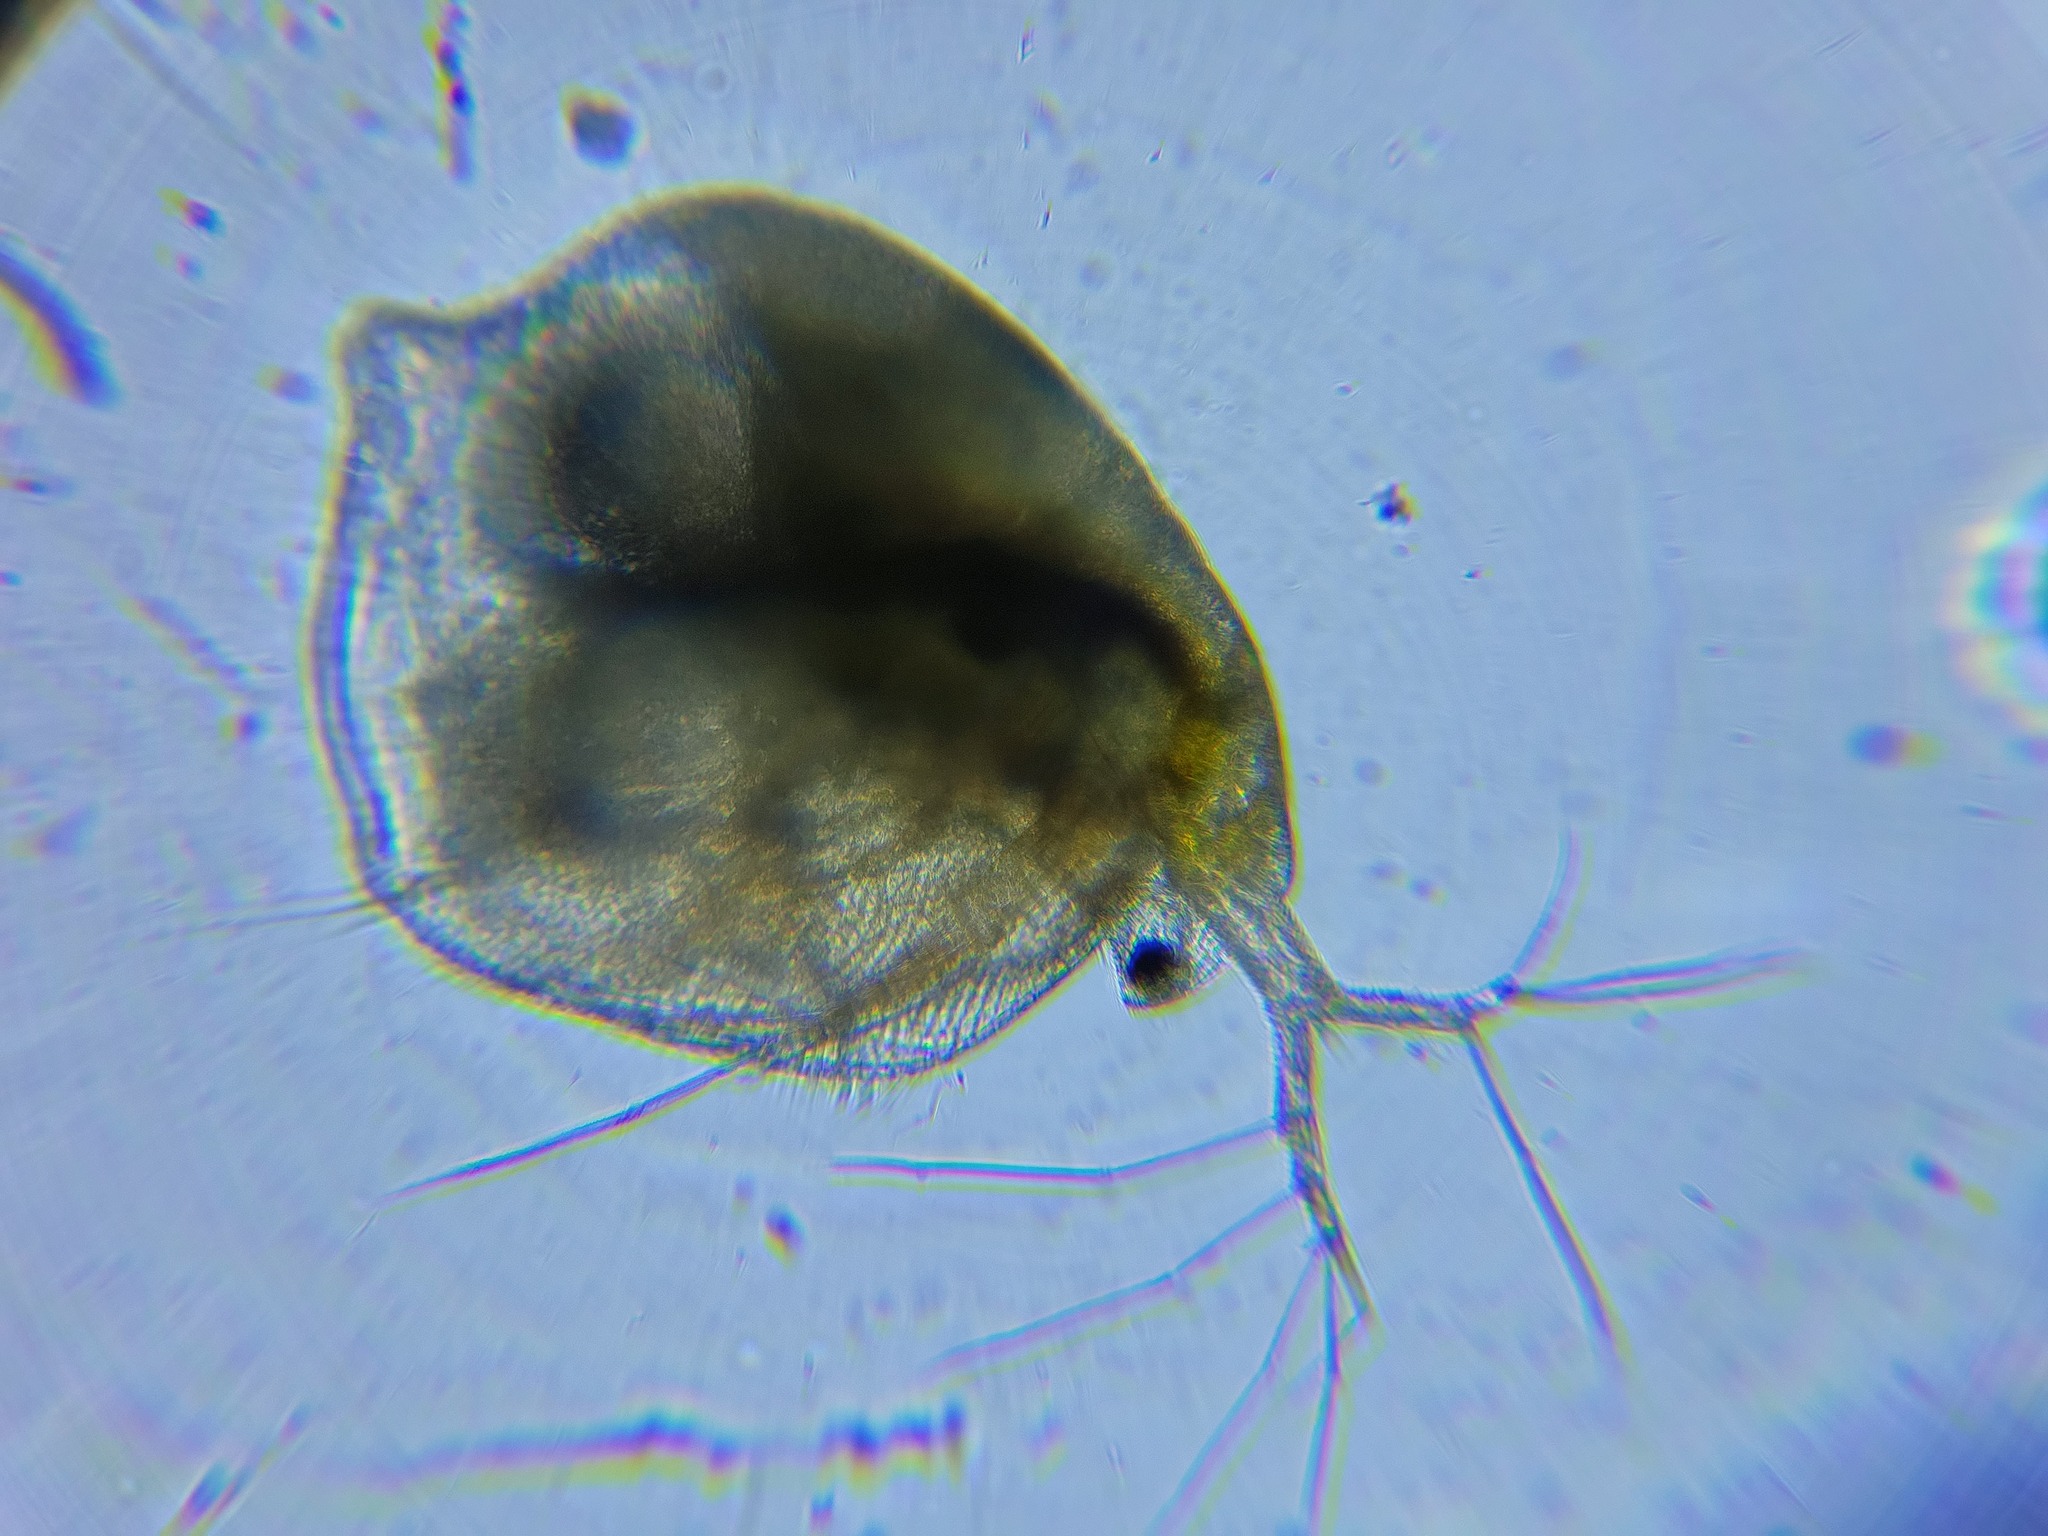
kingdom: Animalia
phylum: Arthropoda
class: Branchiopoda
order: Diplostraca
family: Daphniidae
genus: Simocephalus
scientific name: Simocephalus serrulatus
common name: Water flea
